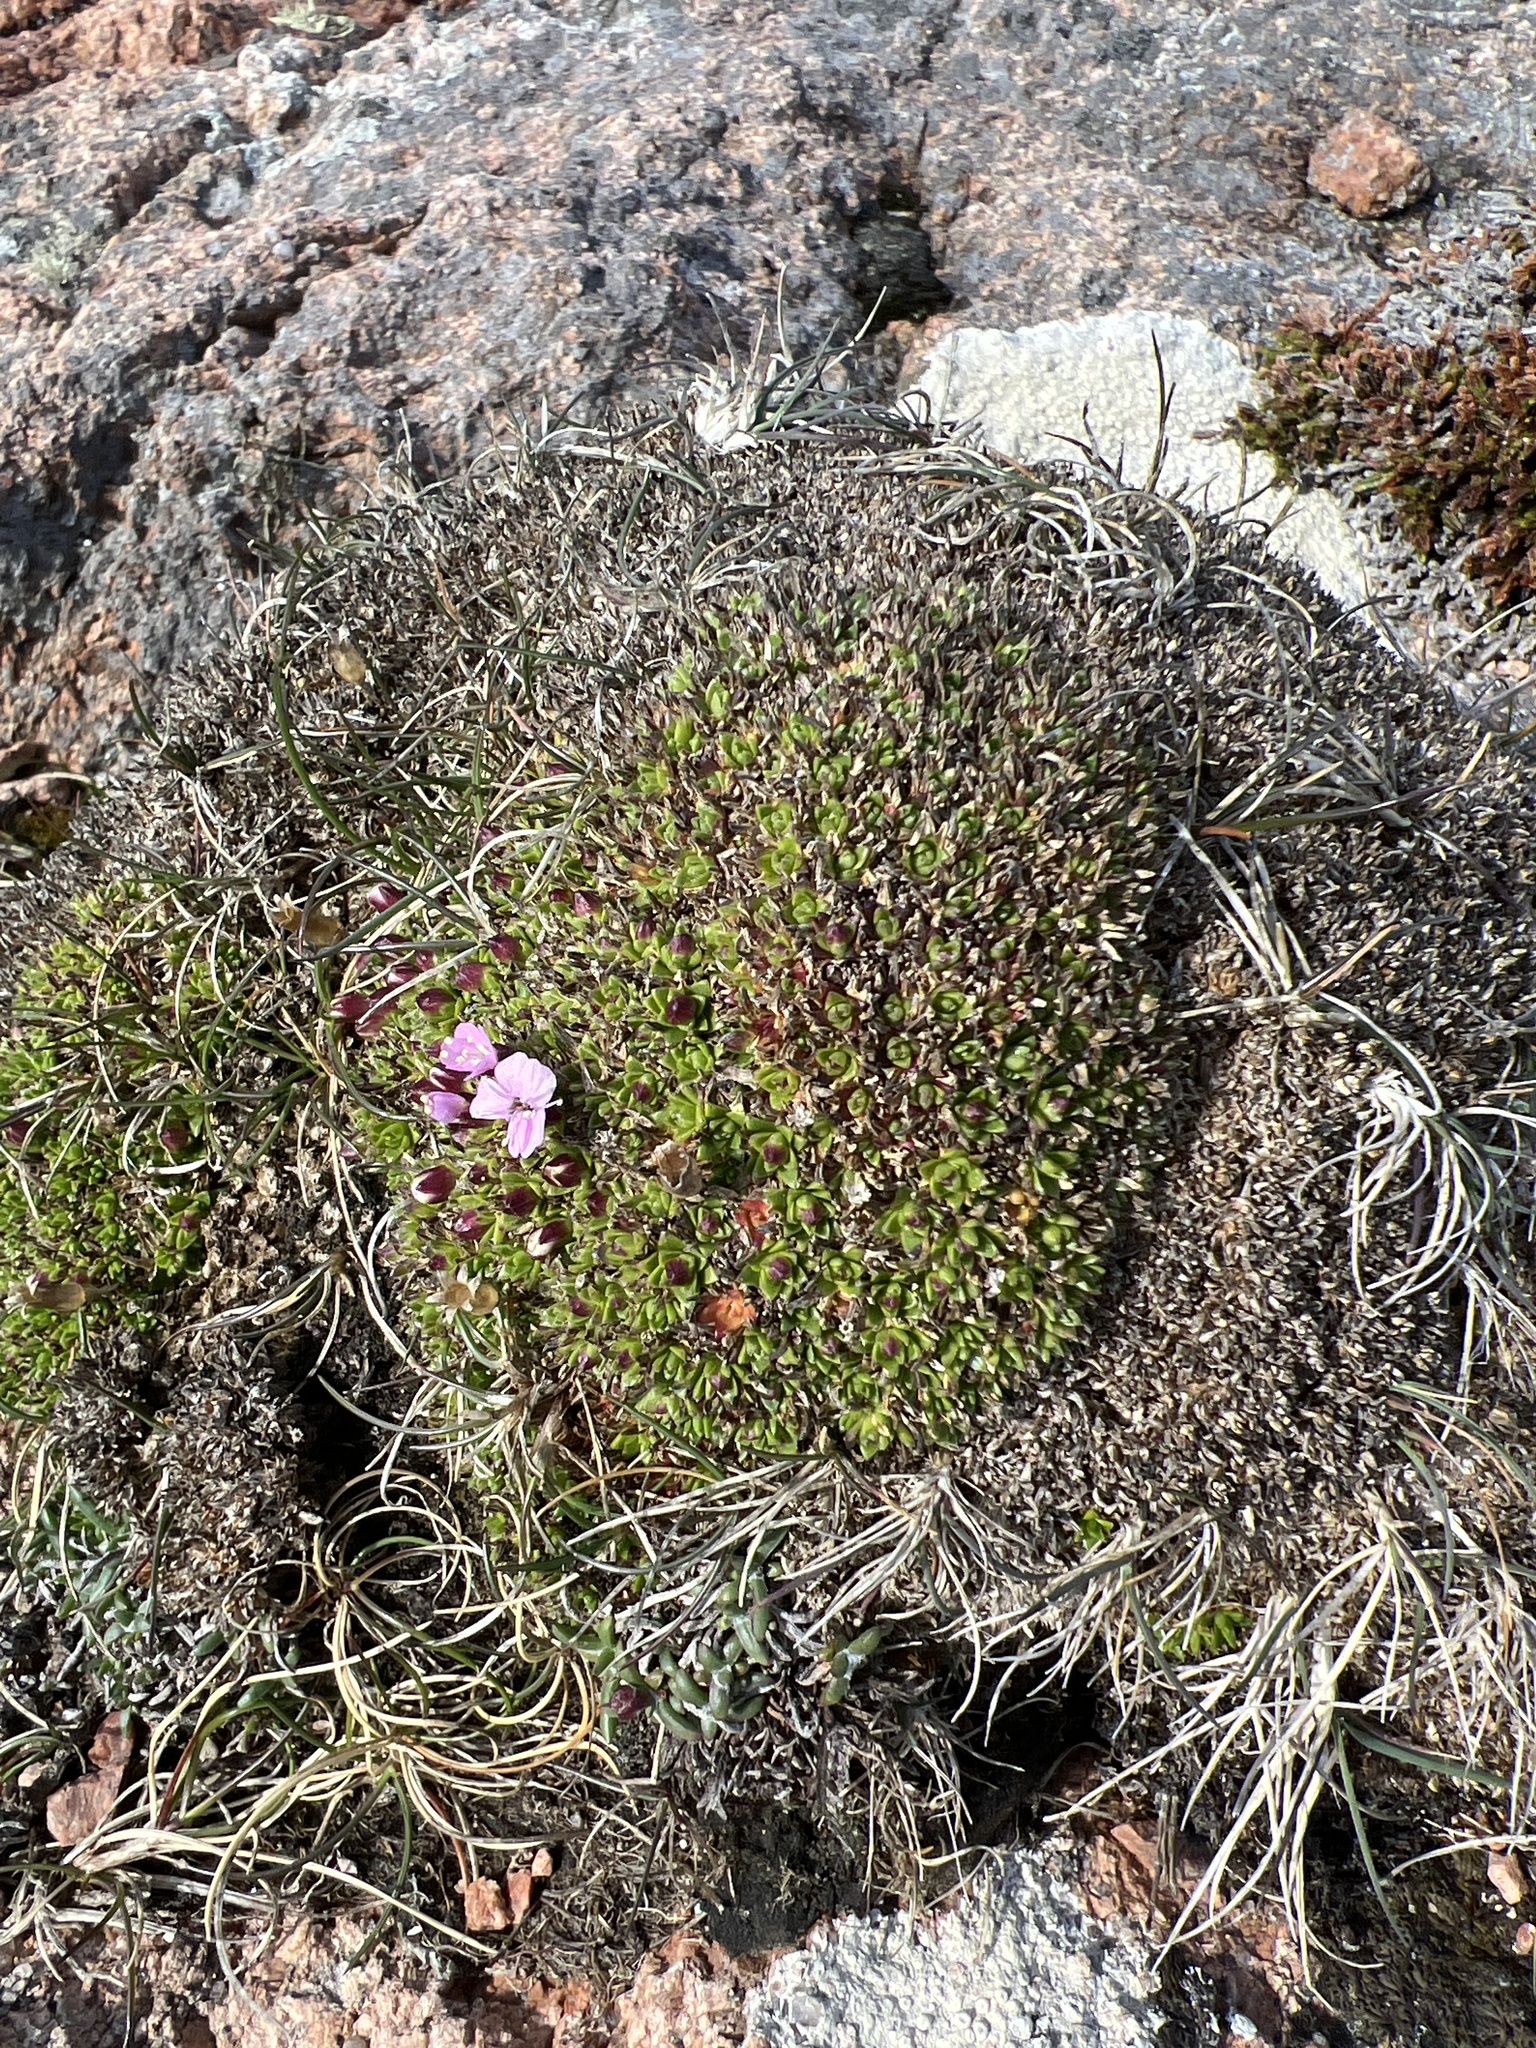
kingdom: Plantae
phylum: Tracheophyta
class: Magnoliopsida
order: Caryophyllales
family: Caryophyllaceae
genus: Silene
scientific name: Silene acaulis
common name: Moss campion
